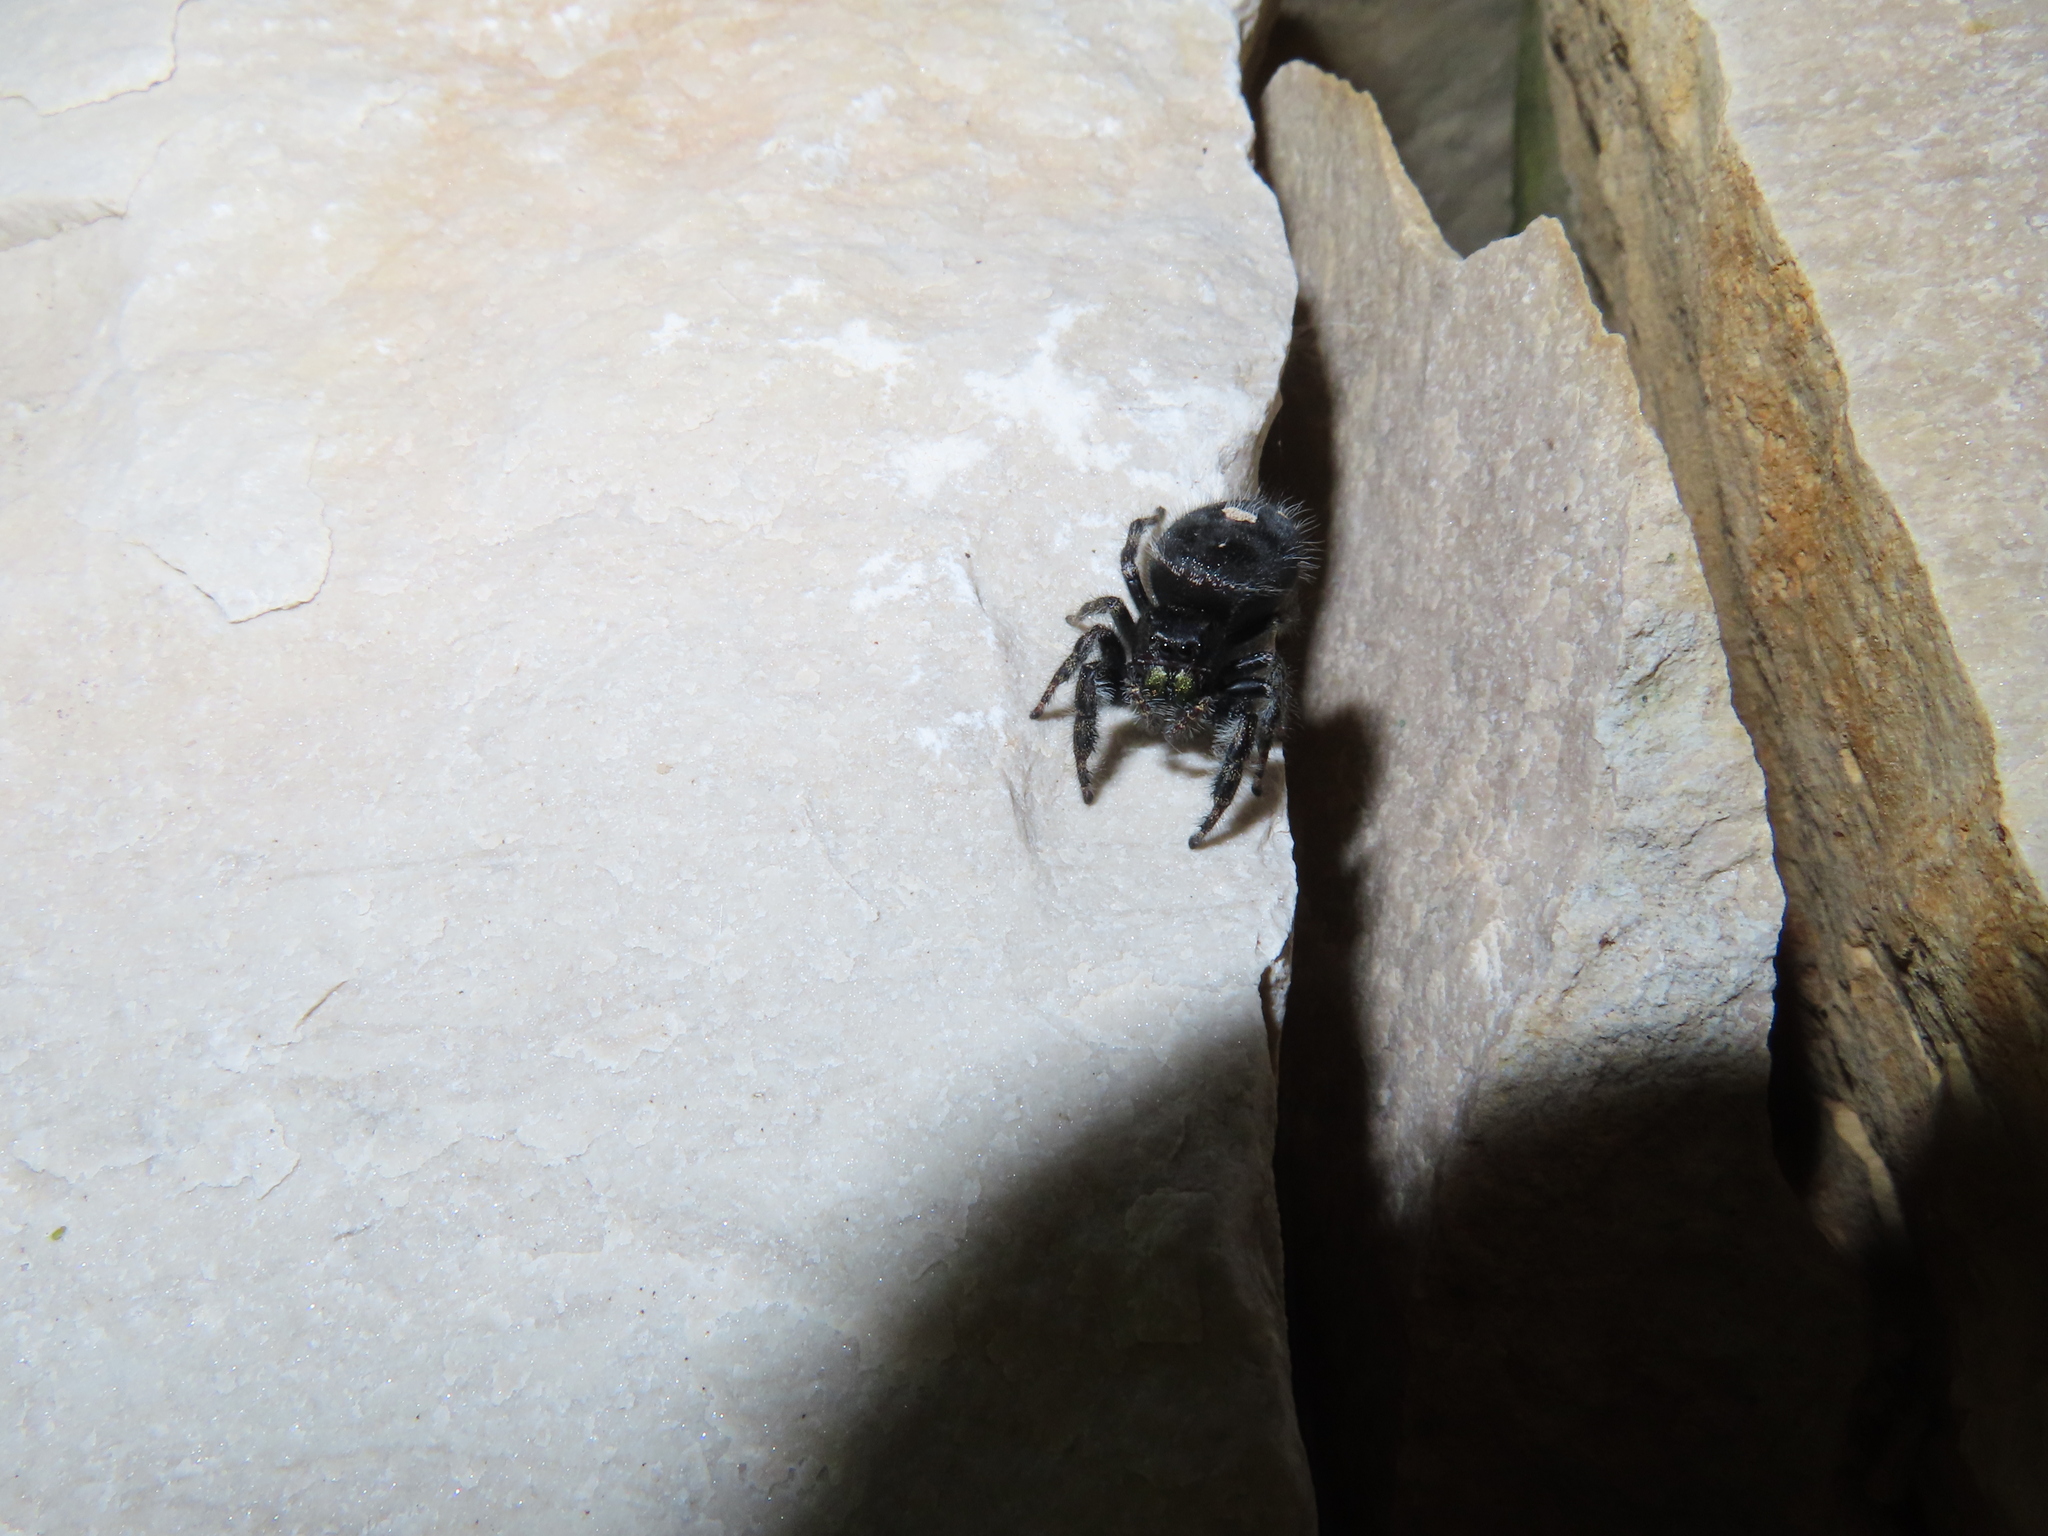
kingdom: Animalia
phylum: Arthropoda
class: Arachnida
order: Araneae
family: Salticidae
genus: Phidippus
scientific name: Phidippus audax
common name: Bold jumper
